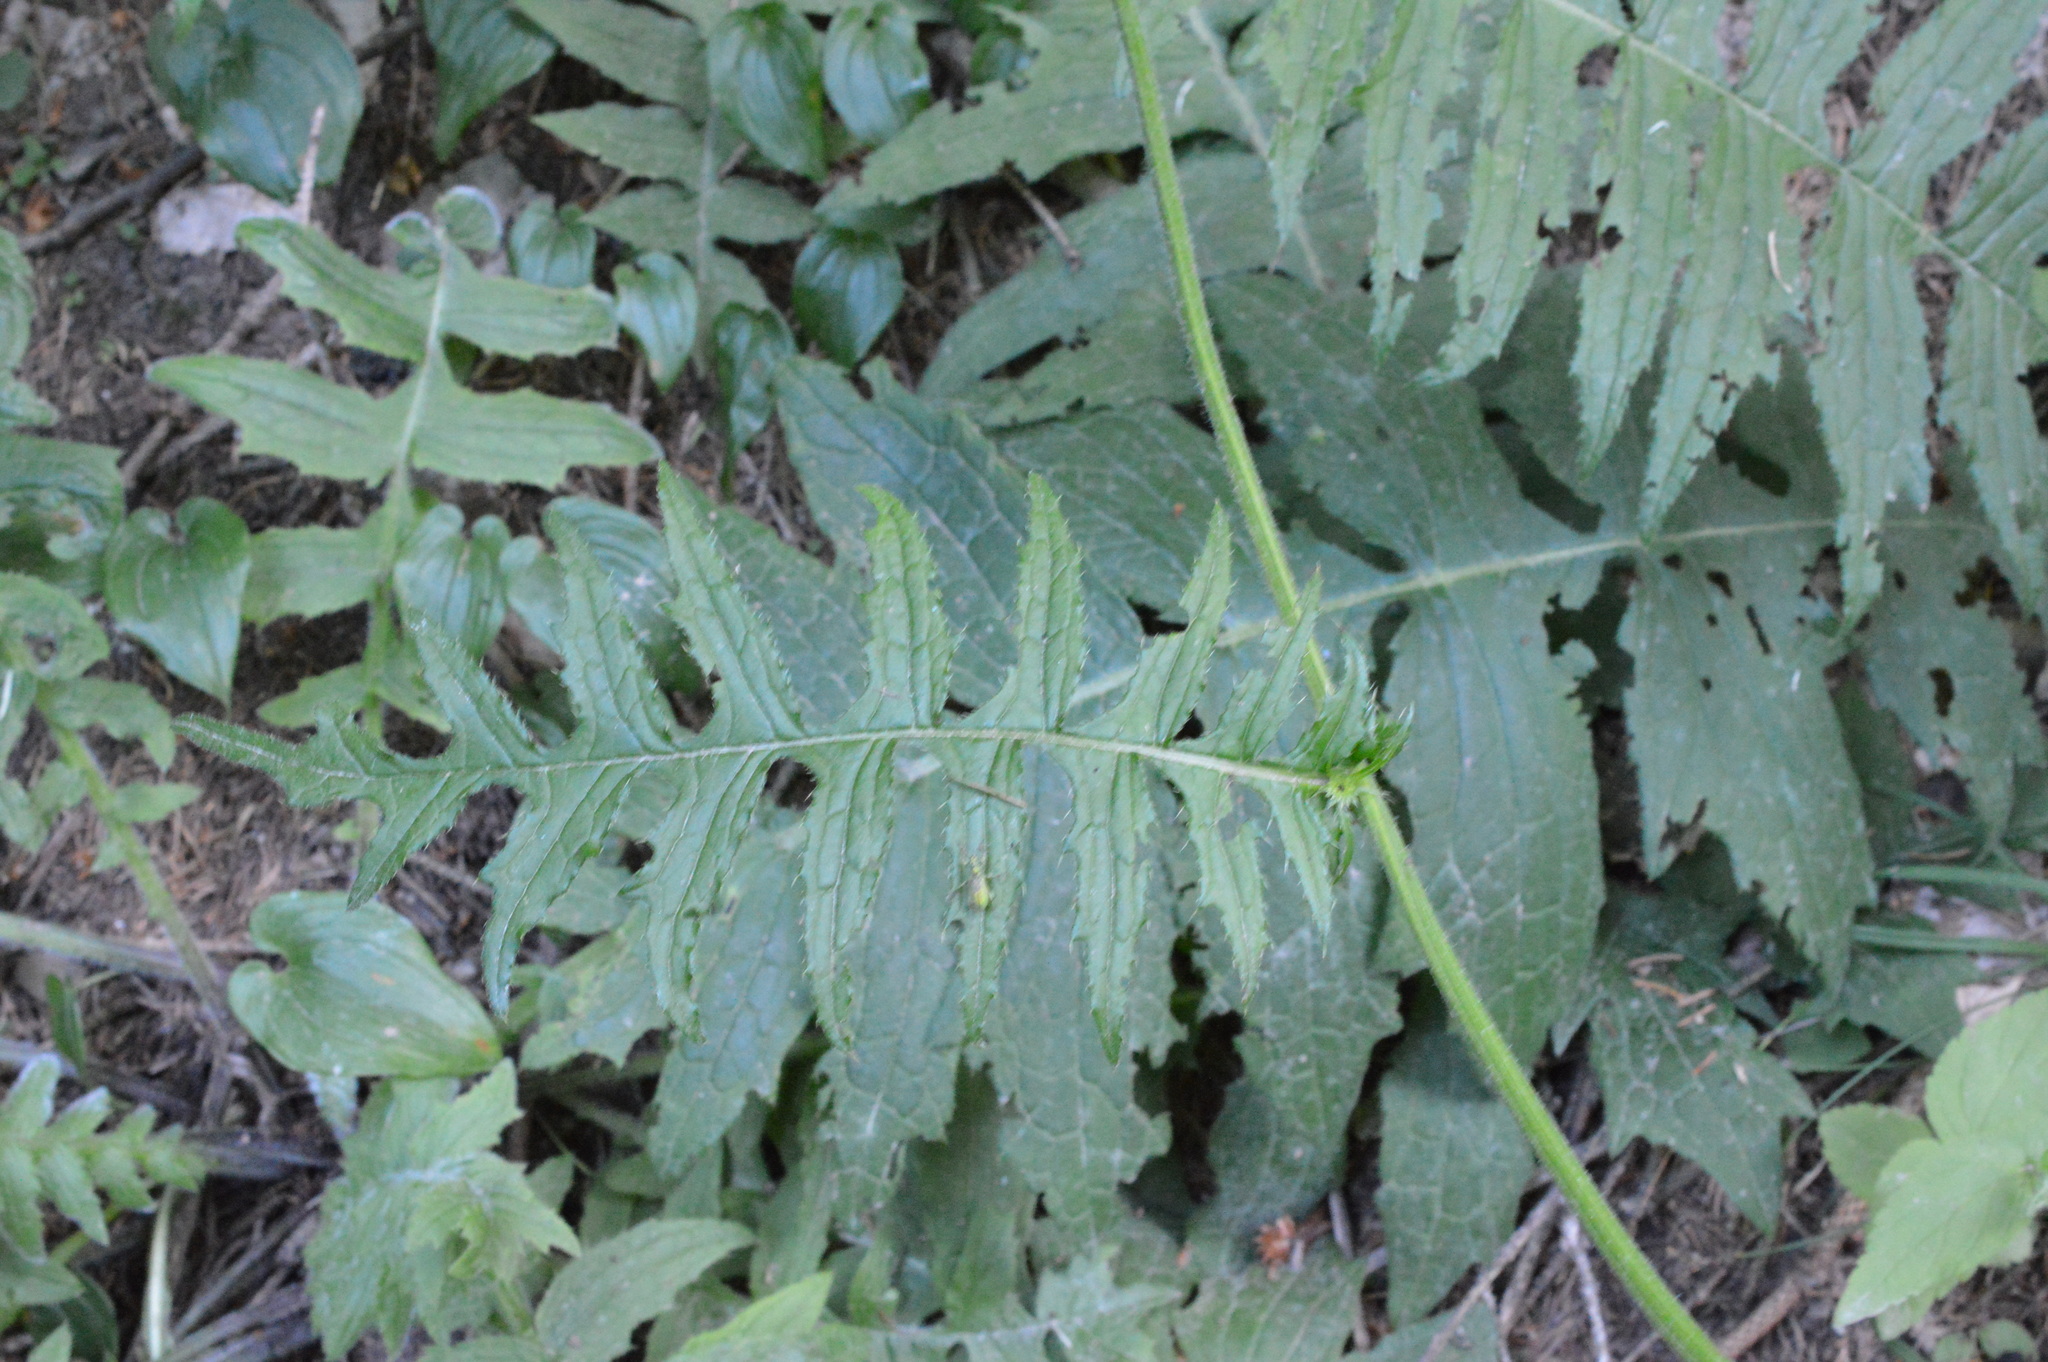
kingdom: Plantae
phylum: Tracheophyta
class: Magnoliopsida
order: Asterales
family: Asteraceae
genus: Cirsium
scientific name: Cirsium erisithales
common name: Yellow thistle
